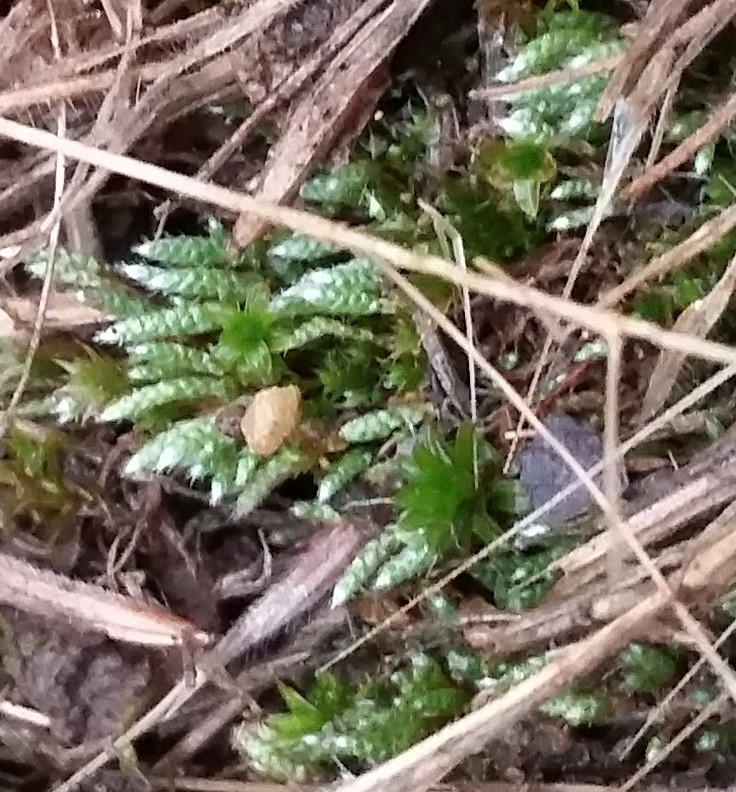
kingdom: Plantae
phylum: Bryophyta
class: Bryopsida
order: Bryales
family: Bryaceae
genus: Bryum
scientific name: Bryum argenteum
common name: Silver-moss
